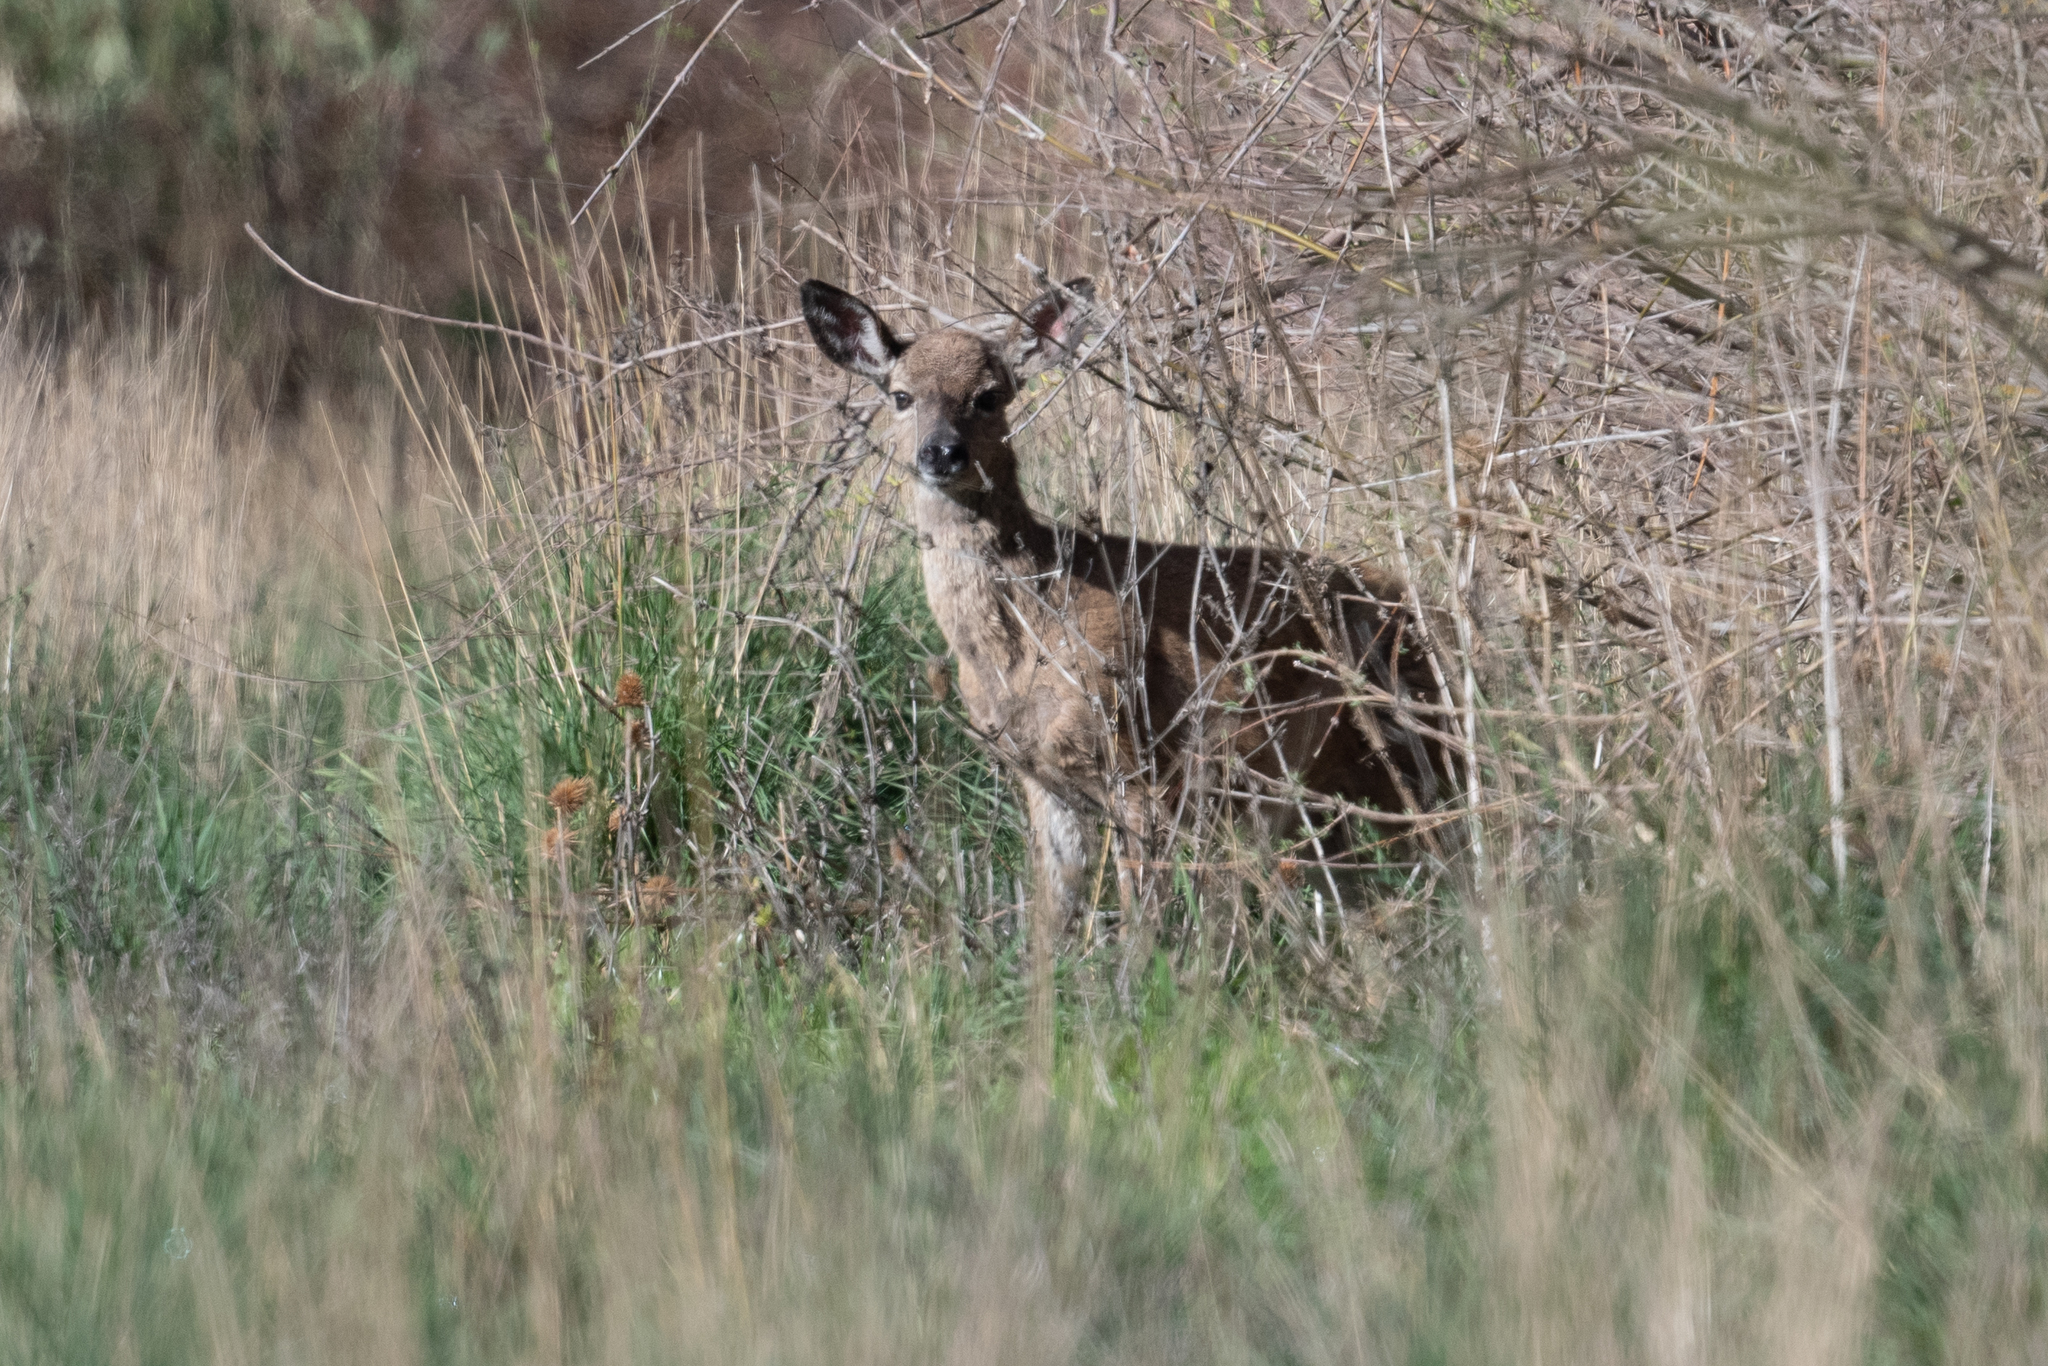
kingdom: Animalia
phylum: Chordata
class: Mammalia
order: Artiodactyla
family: Cervidae
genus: Odocoileus
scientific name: Odocoileus hemionus
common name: Mule deer
